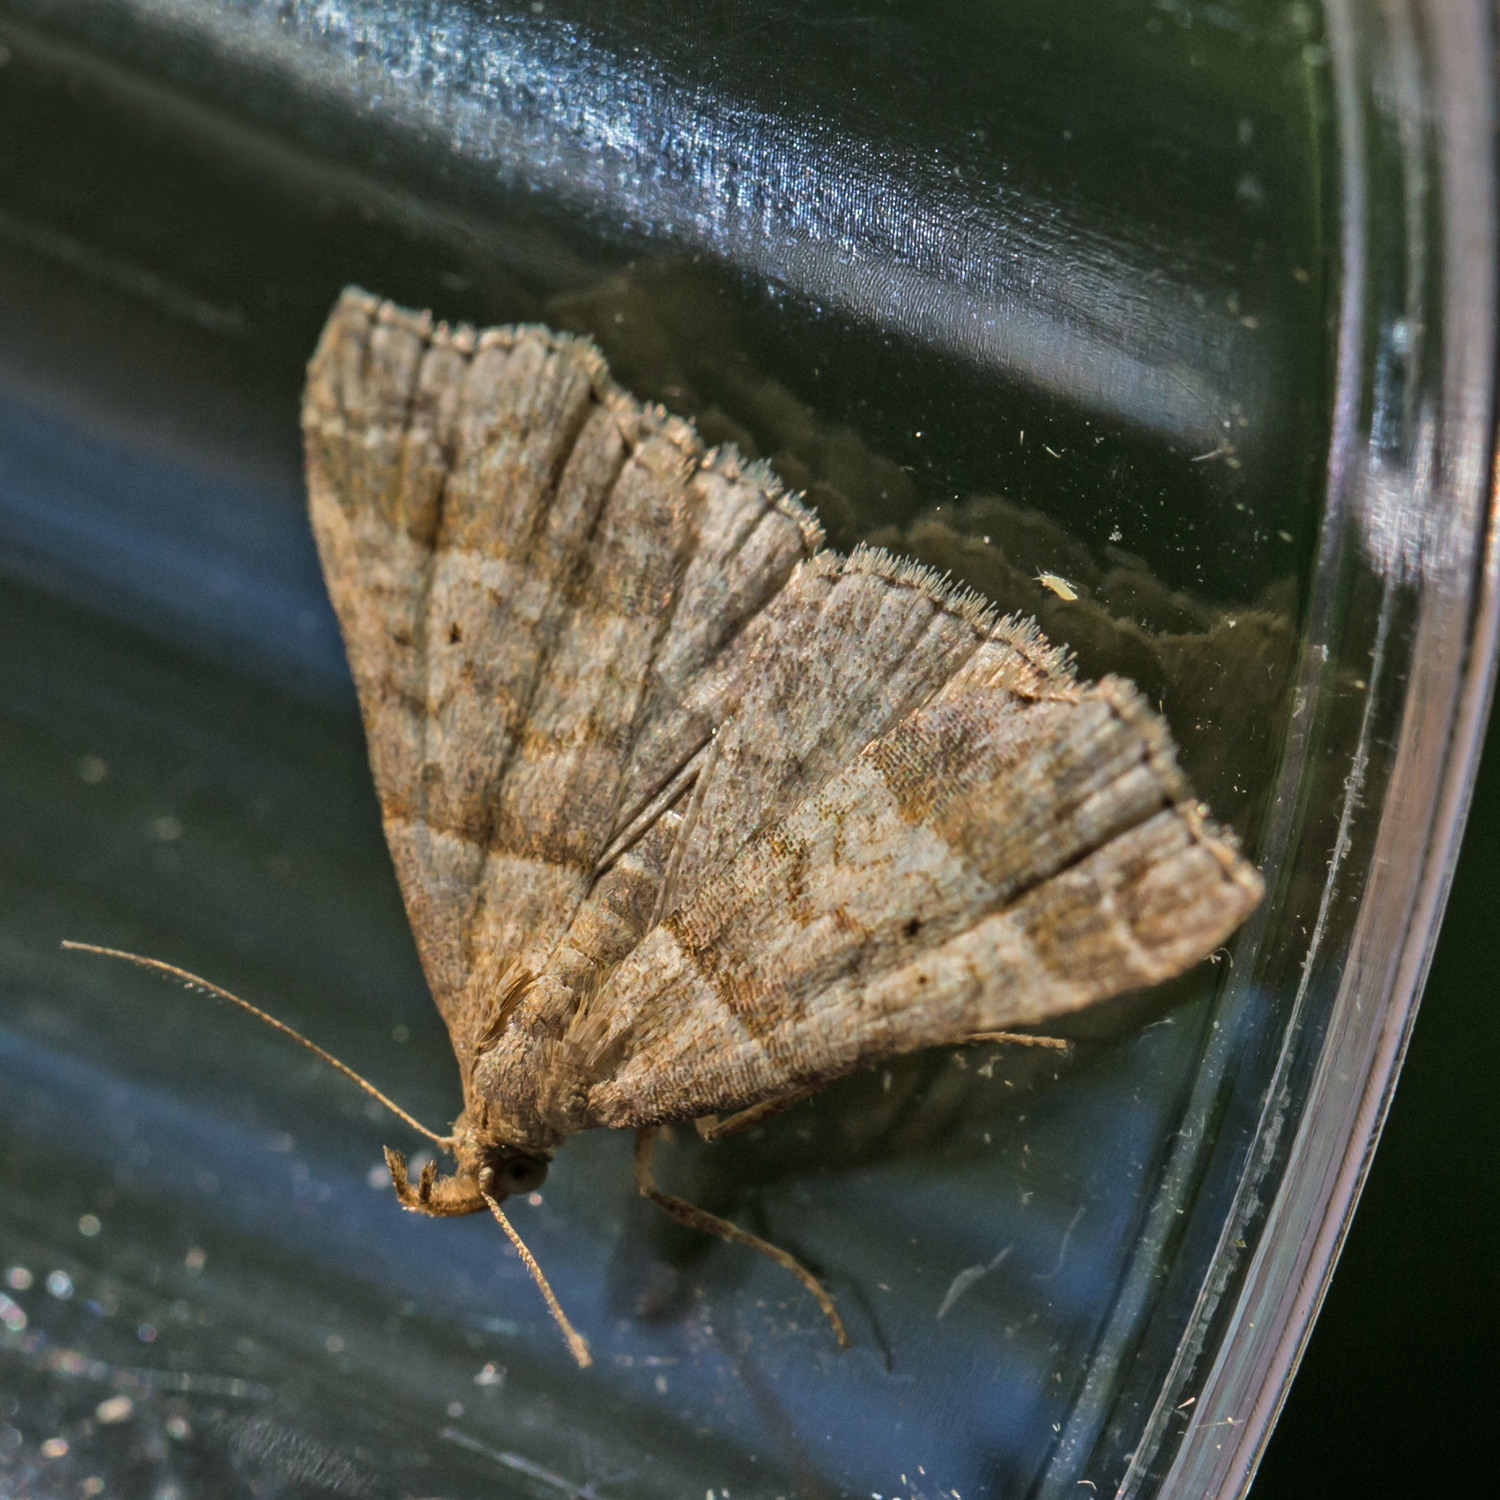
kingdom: Animalia
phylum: Arthropoda
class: Insecta
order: Lepidoptera
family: Erebidae
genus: Phaeolita
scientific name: Phaeolita pyramusalis
